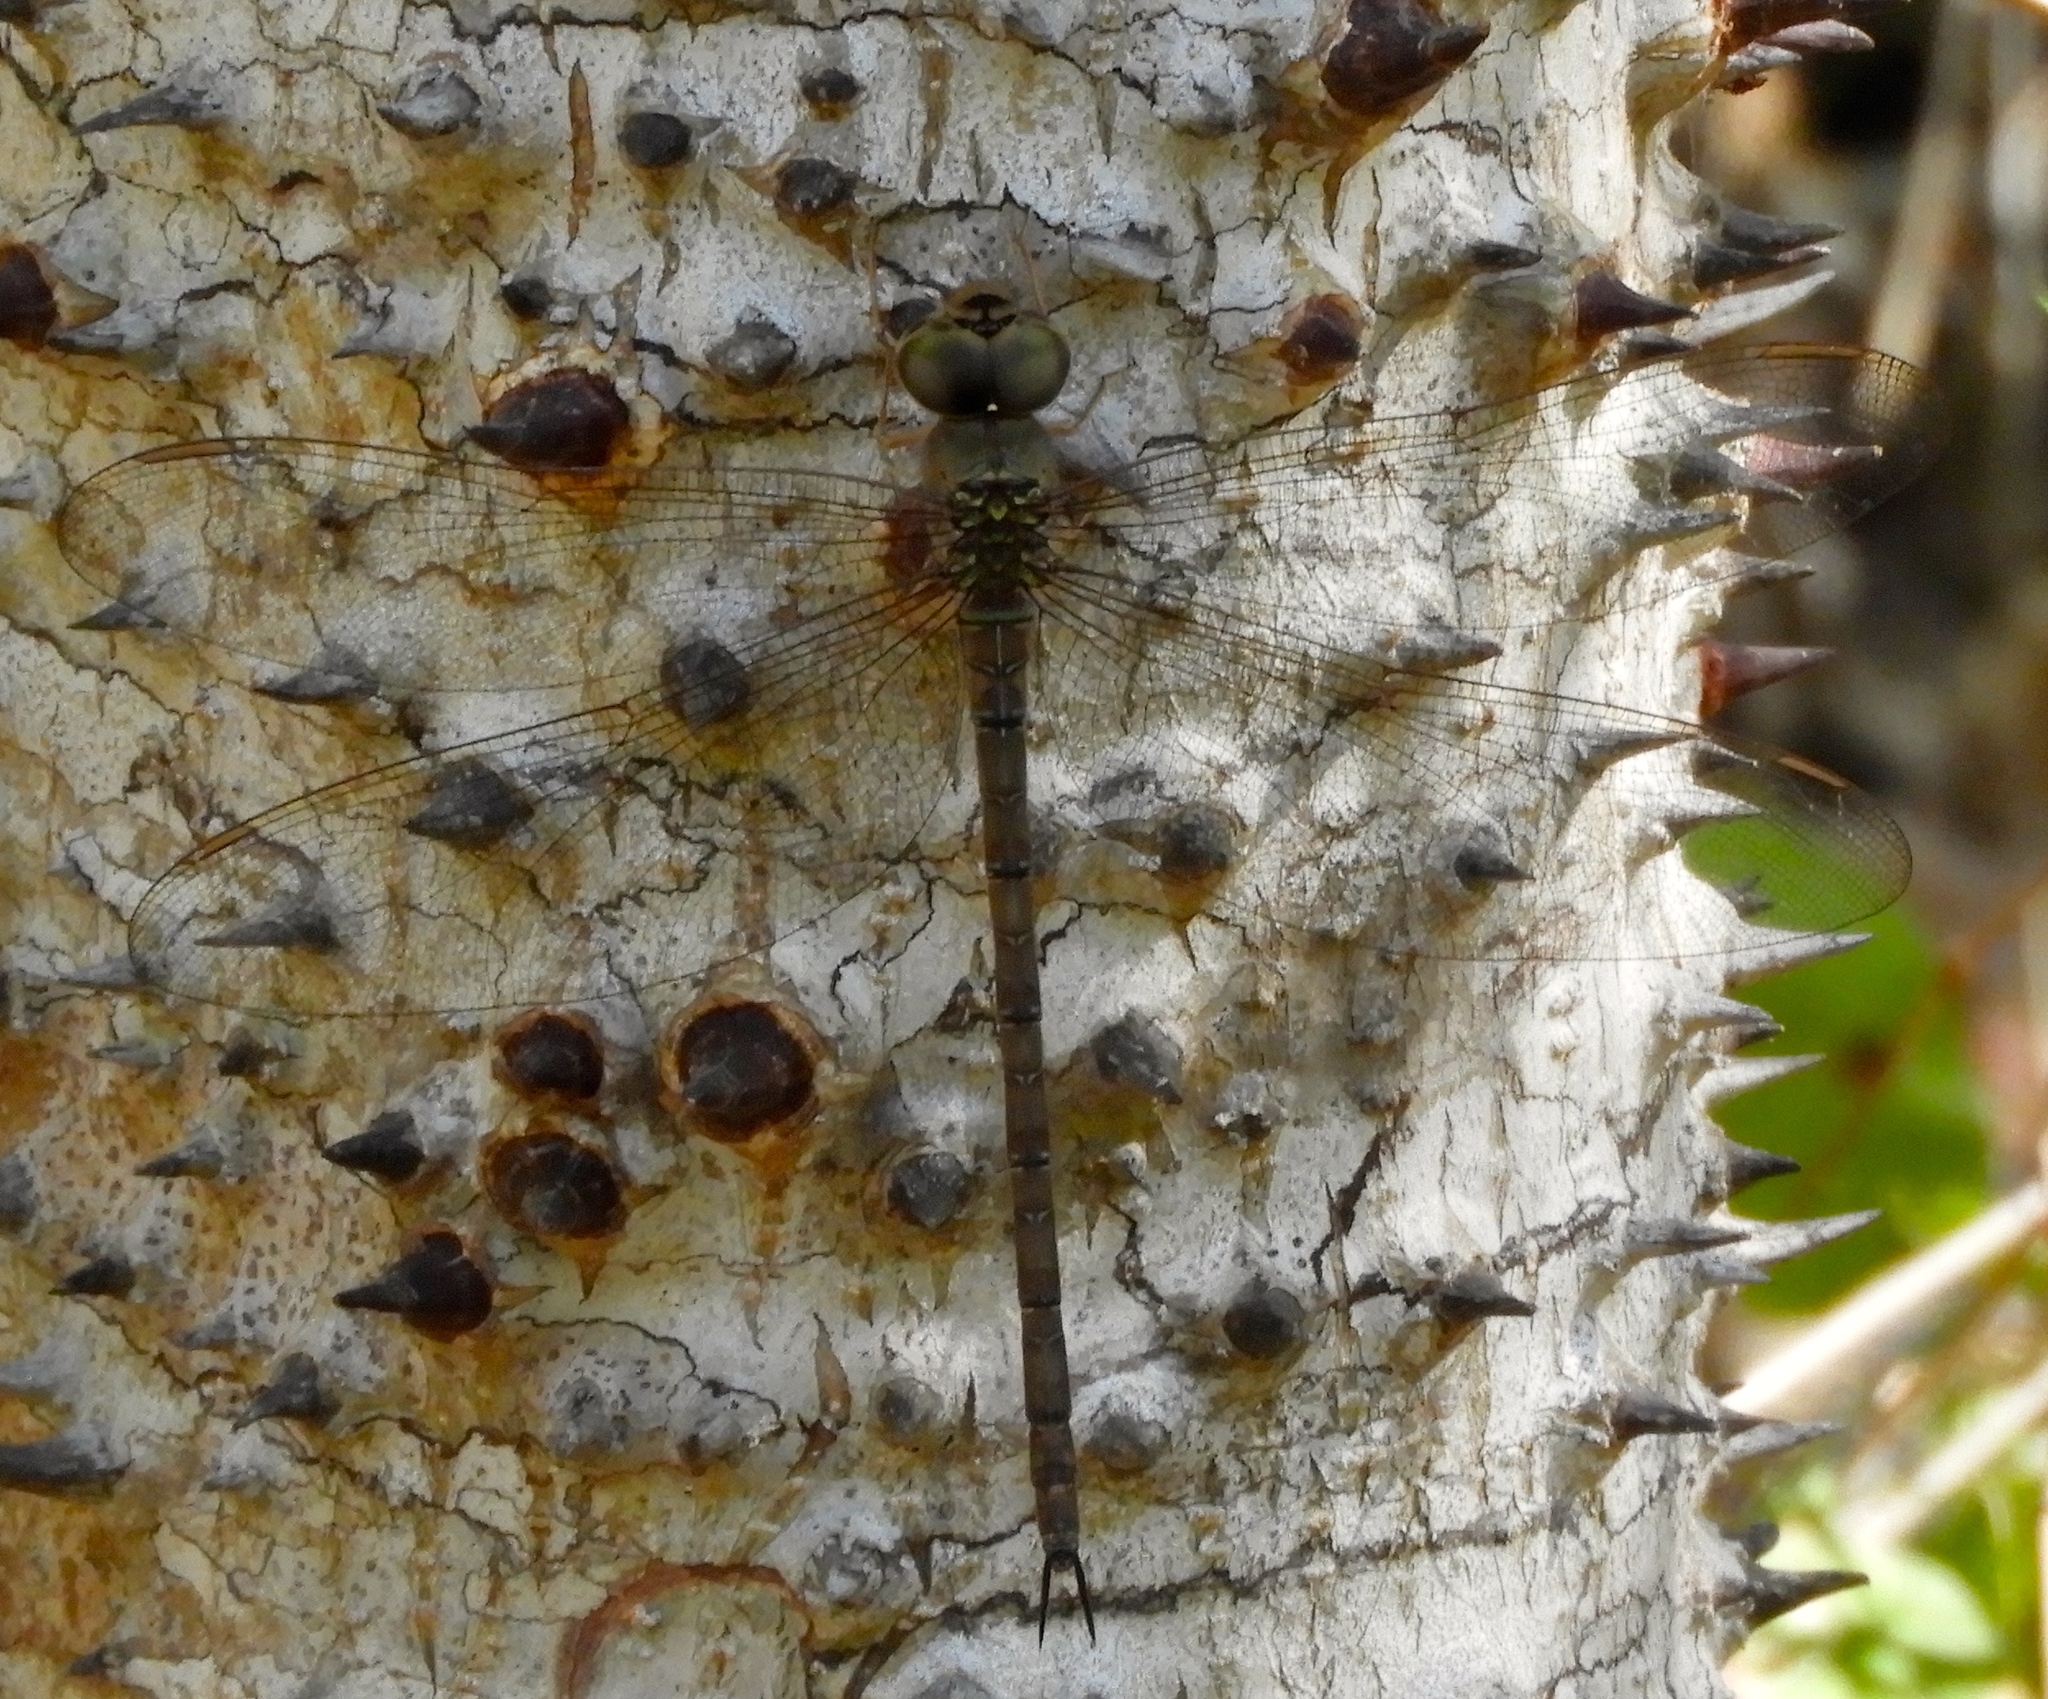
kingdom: Animalia
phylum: Arthropoda
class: Insecta
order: Odonata
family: Aeshnidae
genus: Gynacantha
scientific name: Gynacantha nervosa
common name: Twilight darner
